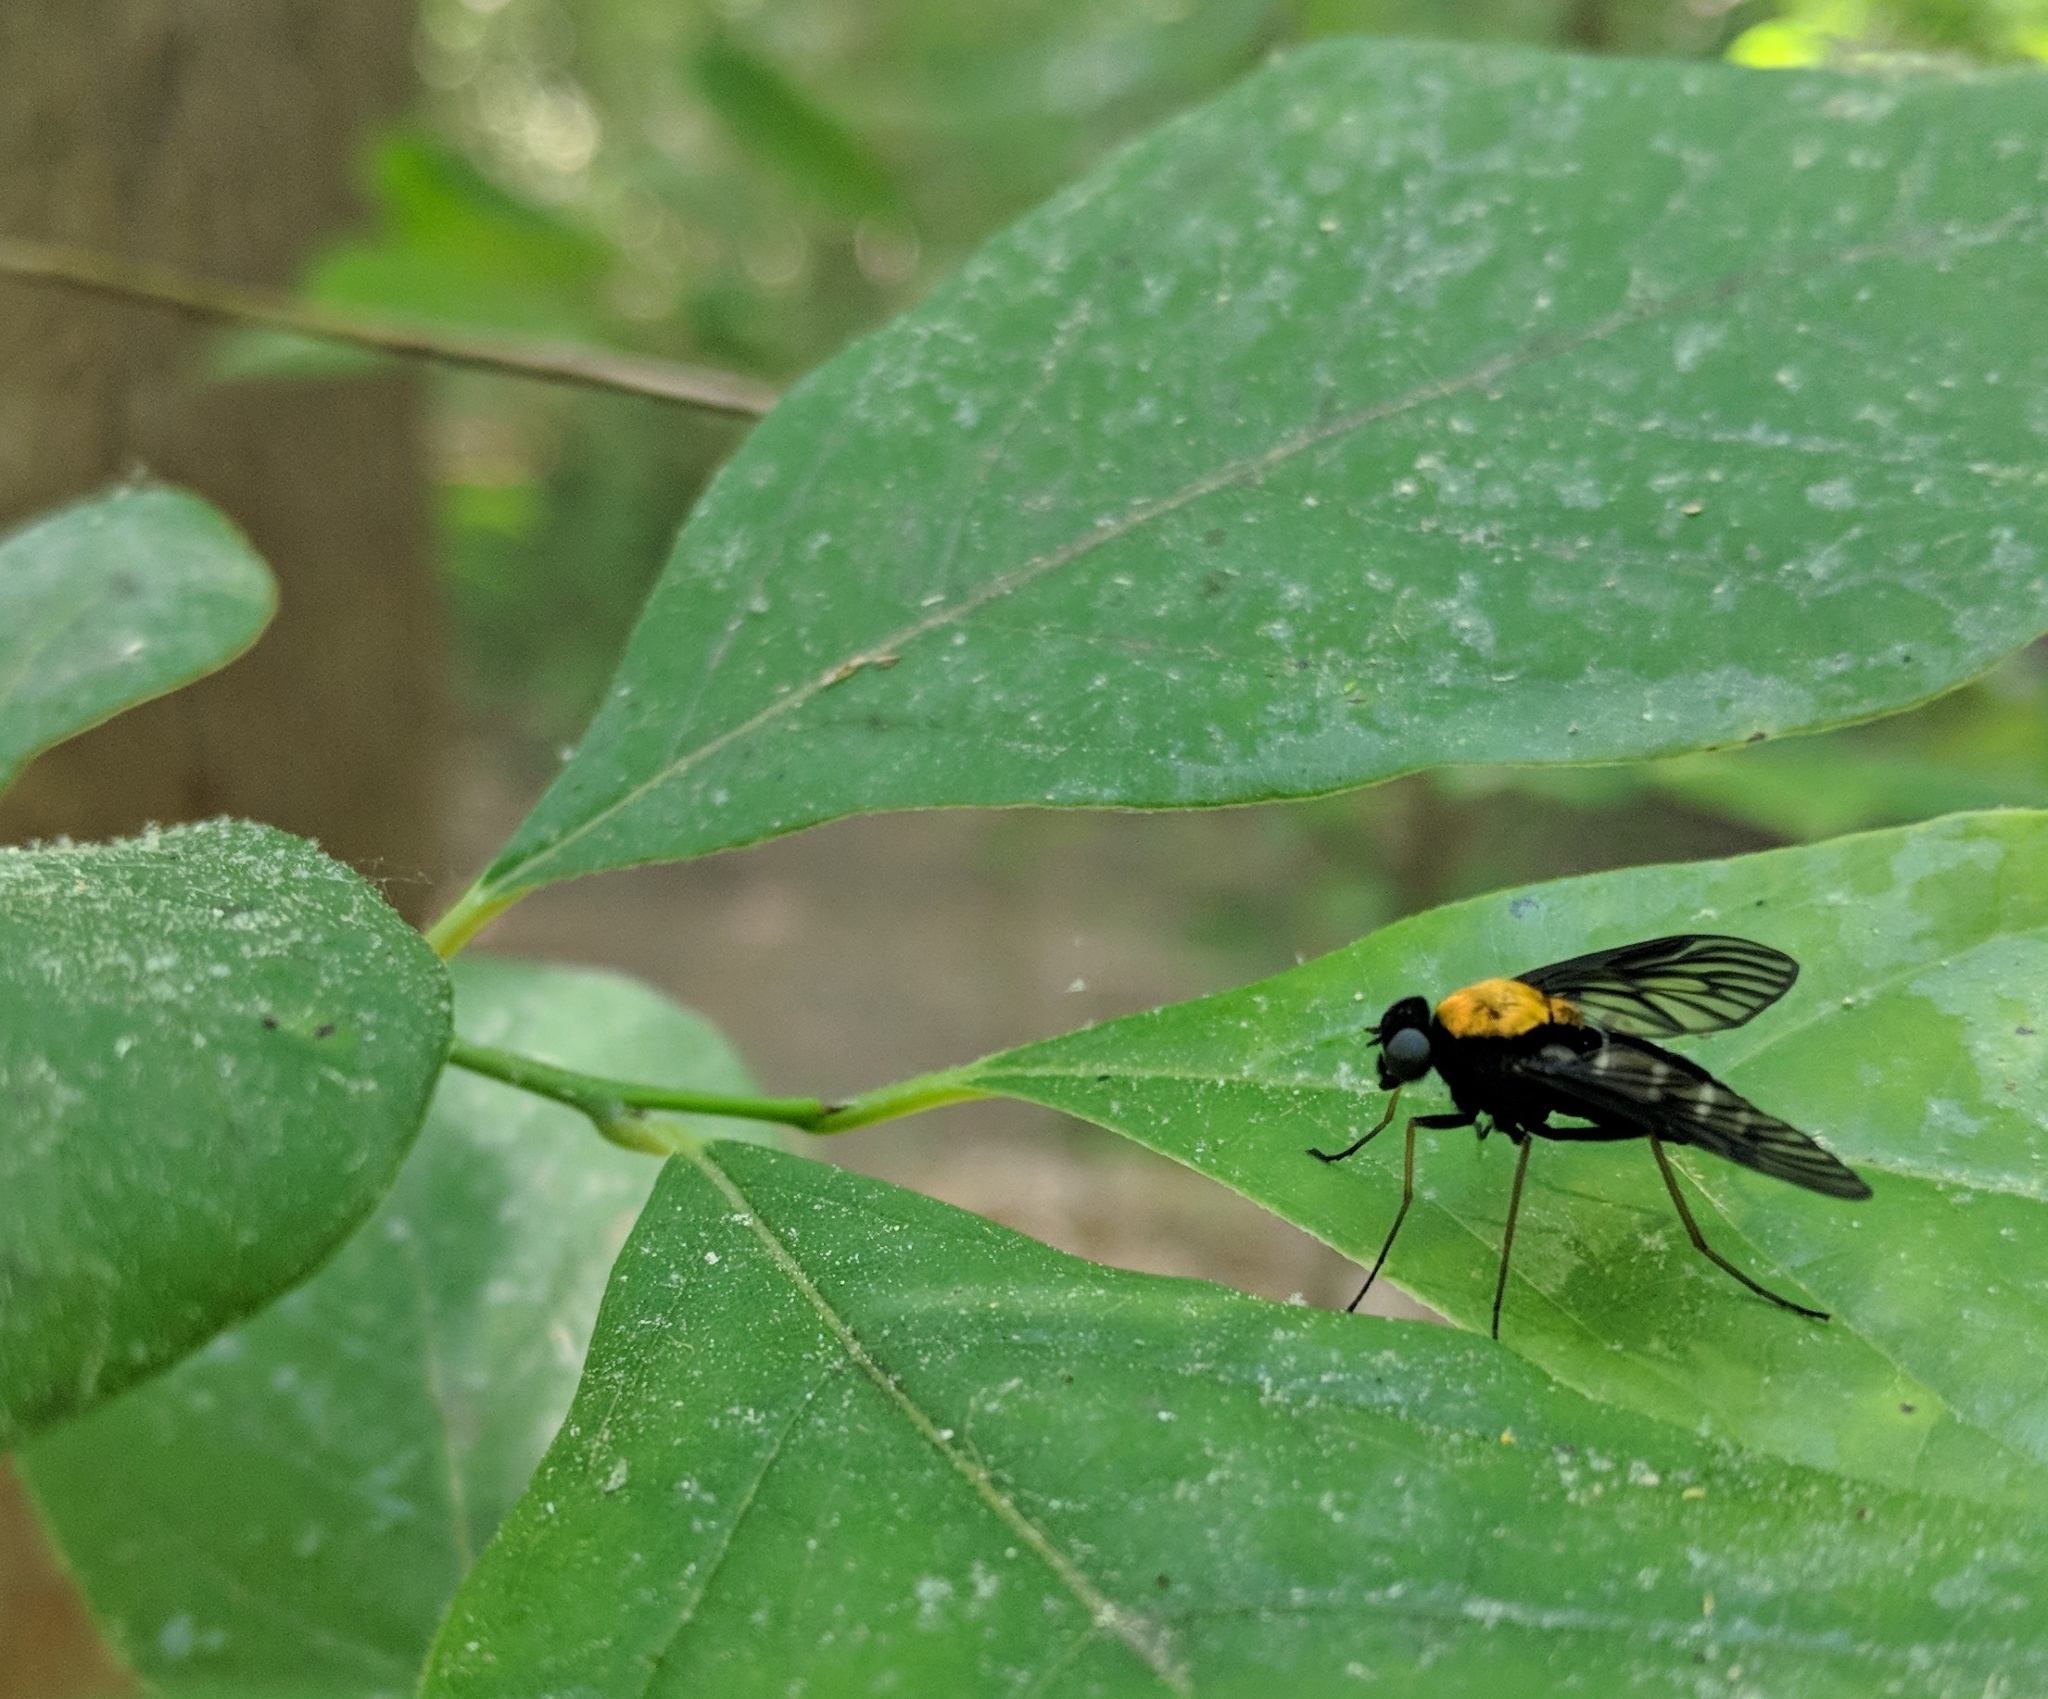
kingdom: Animalia
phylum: Arthropoda
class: Insecta
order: Diptera
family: Rhagionidae
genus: Chrysopilus
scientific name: Chrysopilus thoracicus
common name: Golden-backed snipe fly
